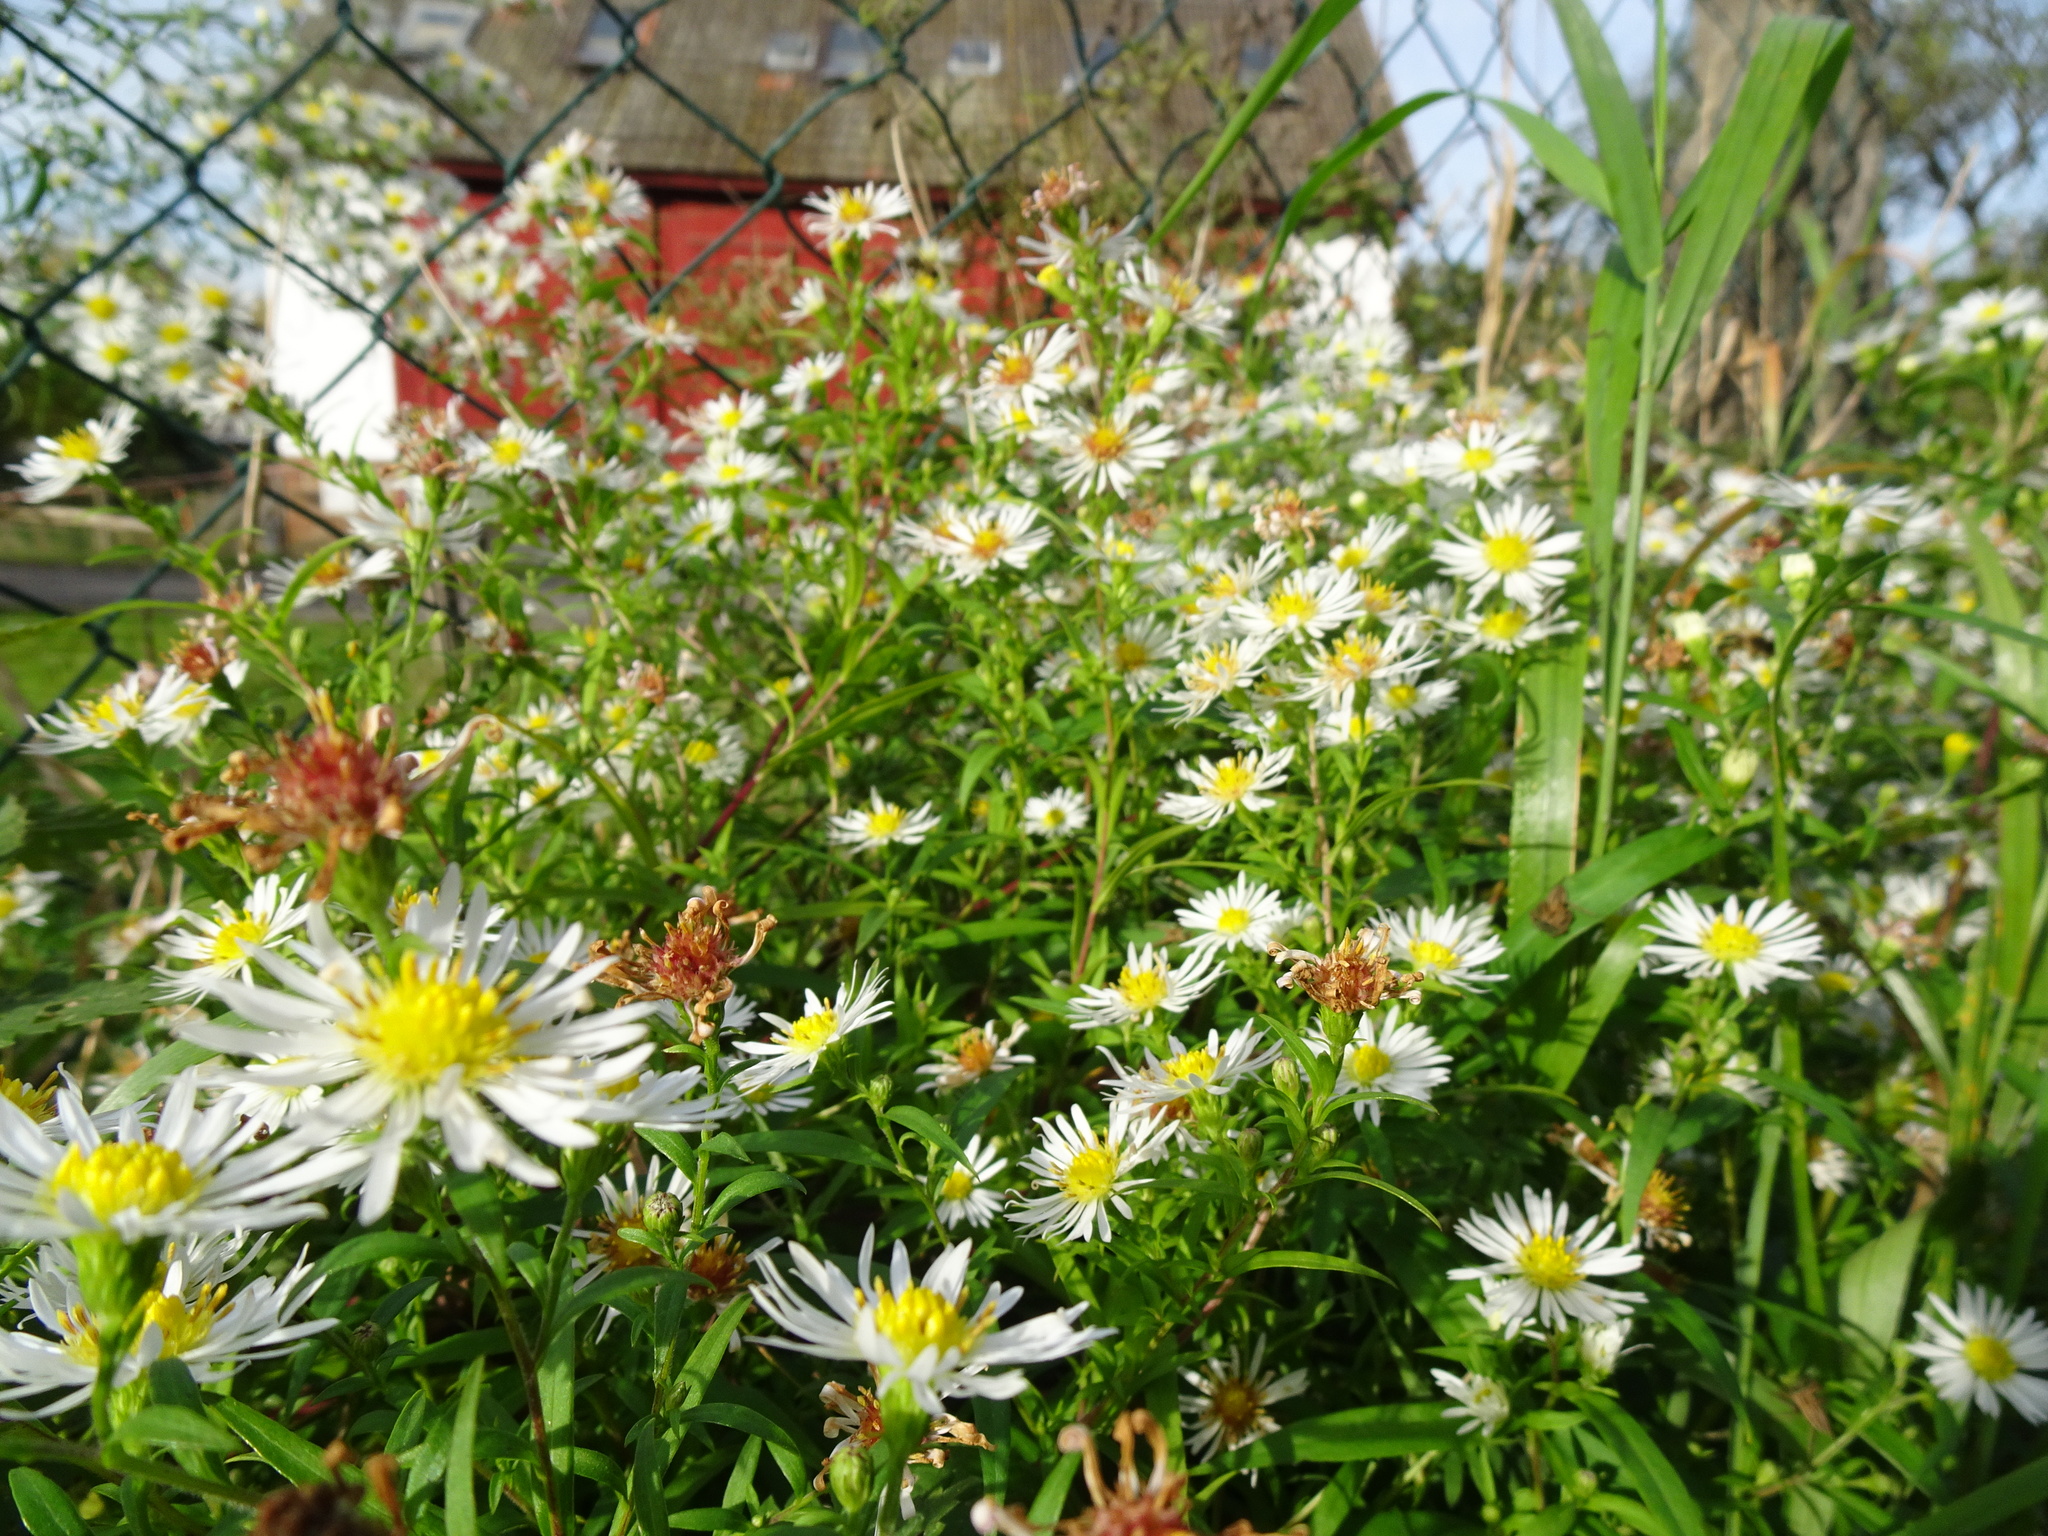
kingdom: Plantae
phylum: Tracheophyta
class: Magnoliopsida
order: Asterales
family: Asteraceae
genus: Symphyotrichum
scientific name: Symphyotrichum lanceolatum
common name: Panicled aster
